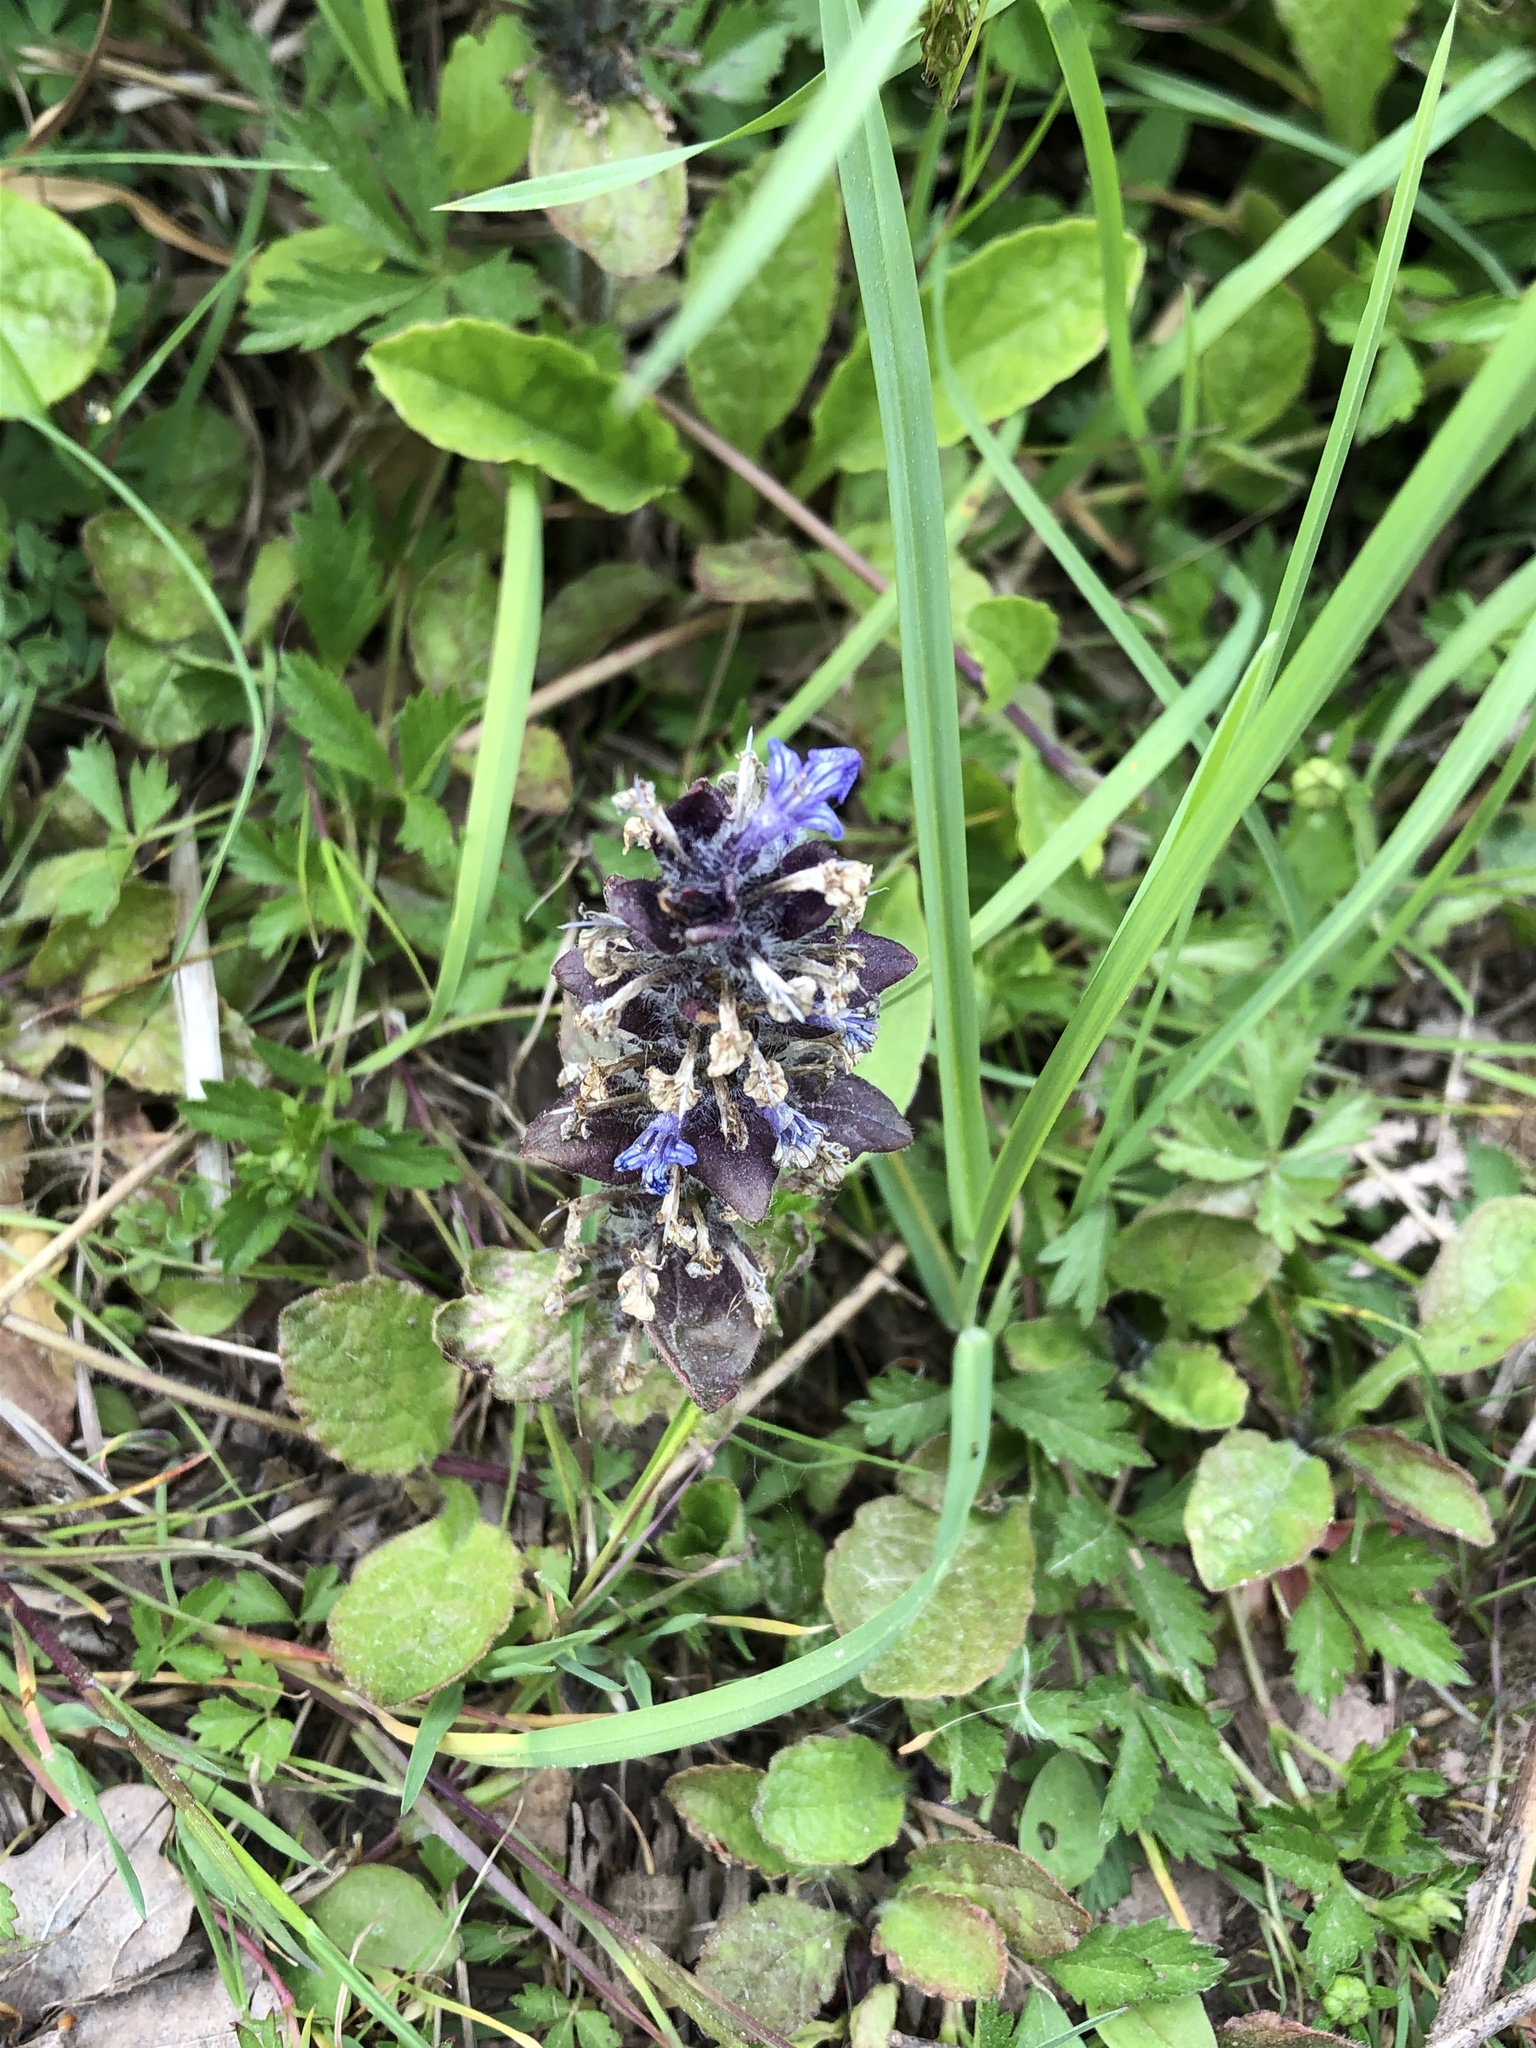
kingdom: Plantae
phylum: Tracheophyta
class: Magnoliopsida
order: Lamiales
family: Lamiaceae
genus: Ajuga
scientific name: Ajuga reptans
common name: Bugle
